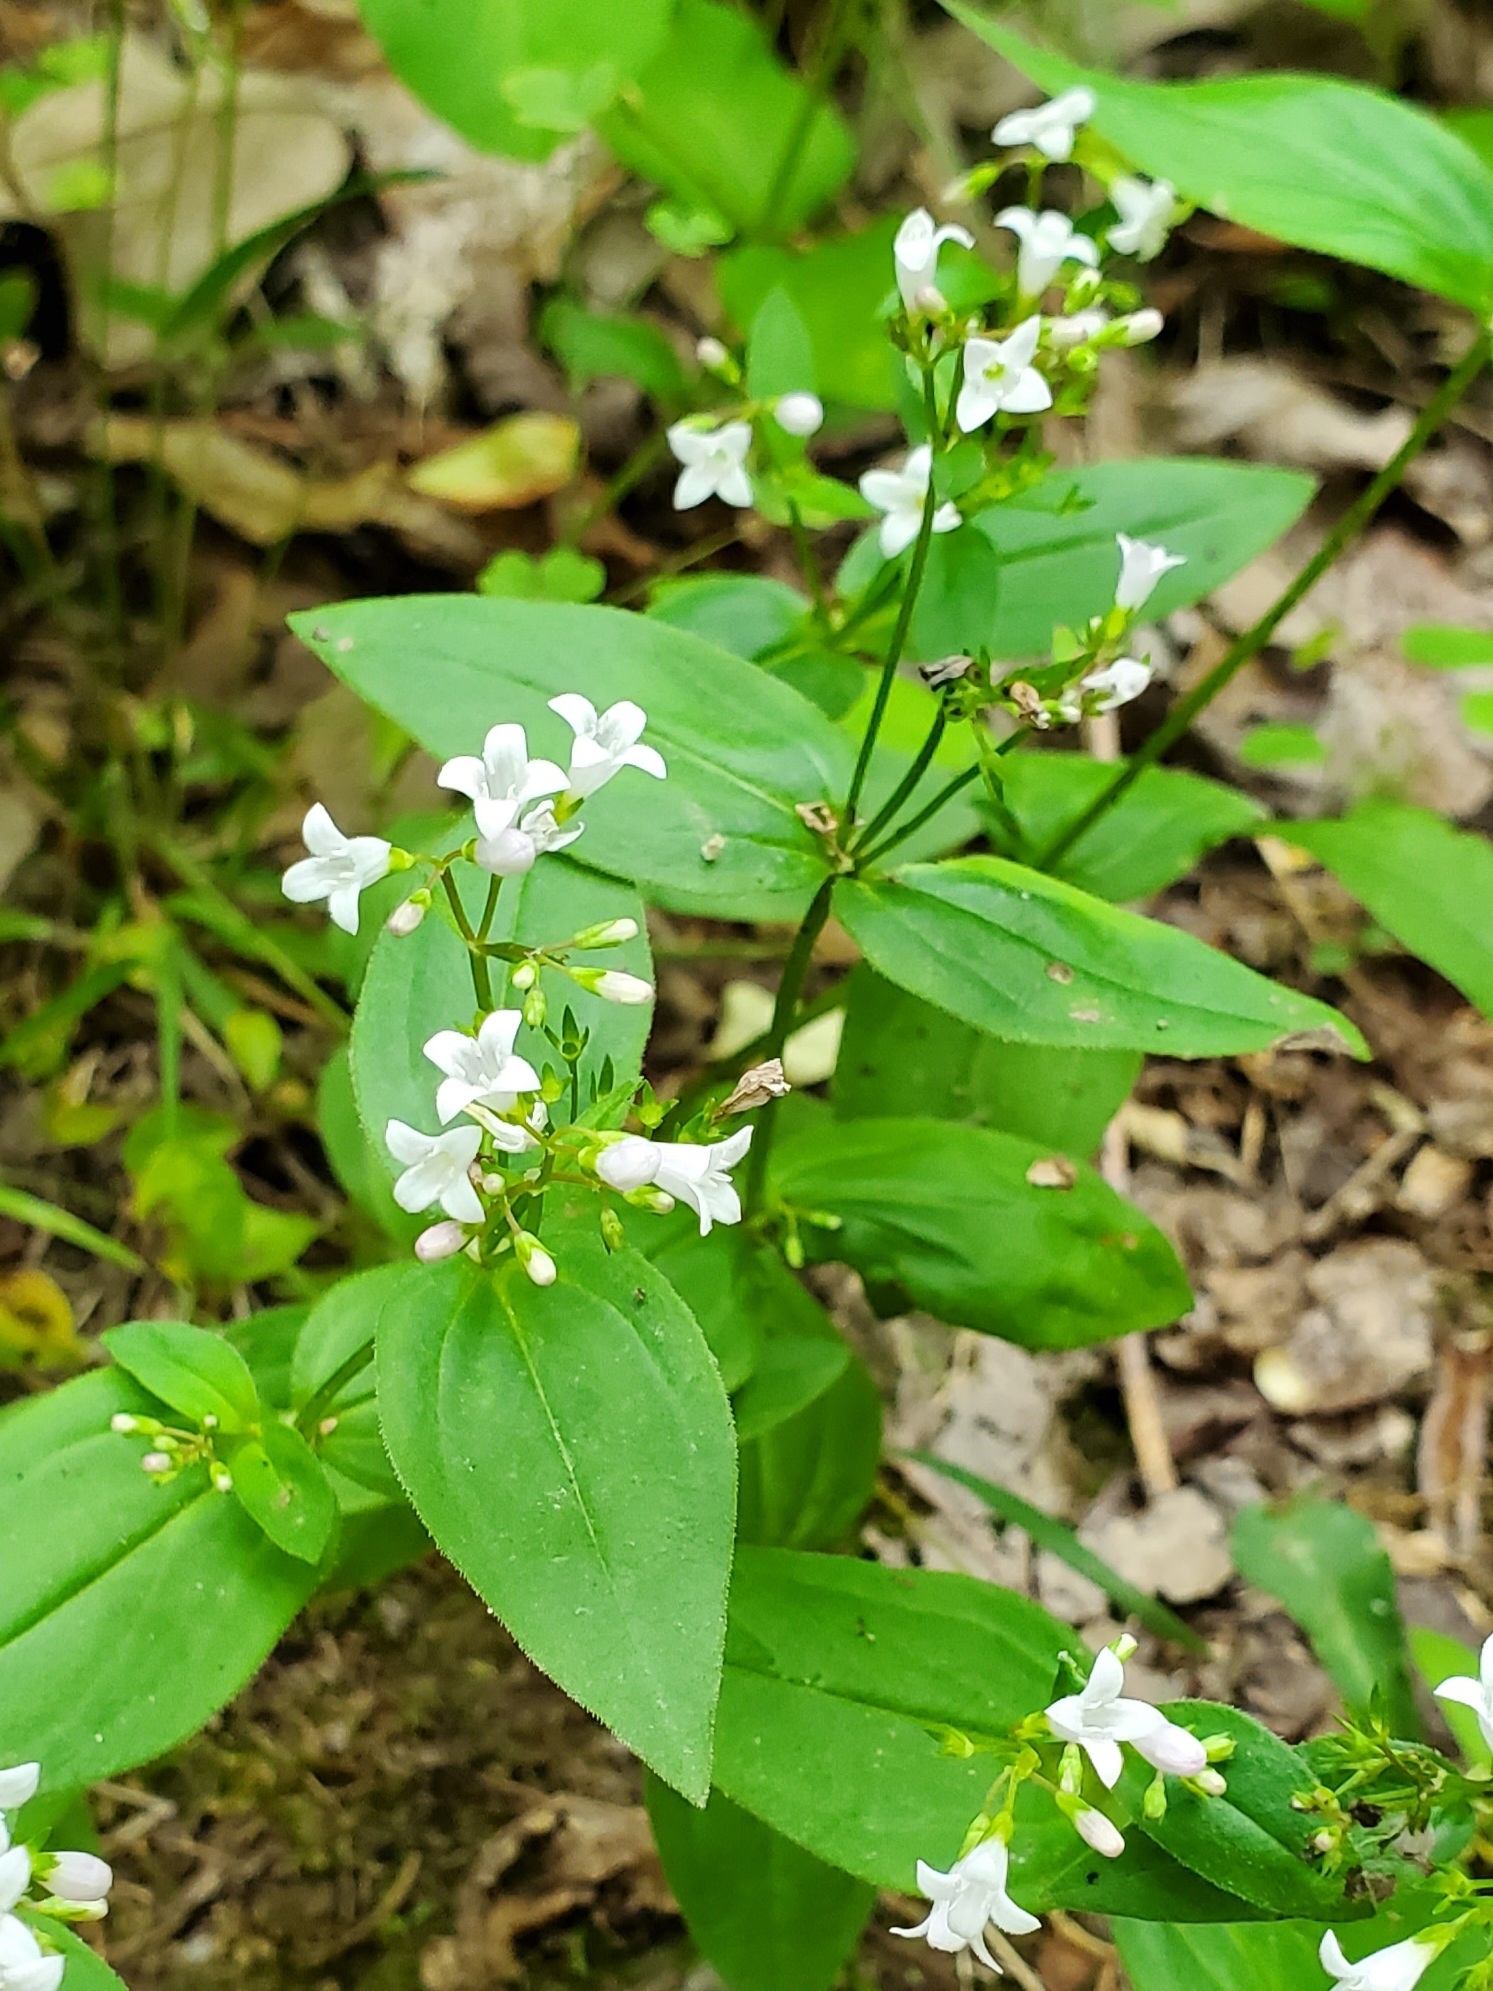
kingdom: Plantae
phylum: Tracheophyta
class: Magnoliopsida
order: Gentianales
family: Rubiaceae
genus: Houstonia
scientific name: Houstonia purpurea
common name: Summer bluet
